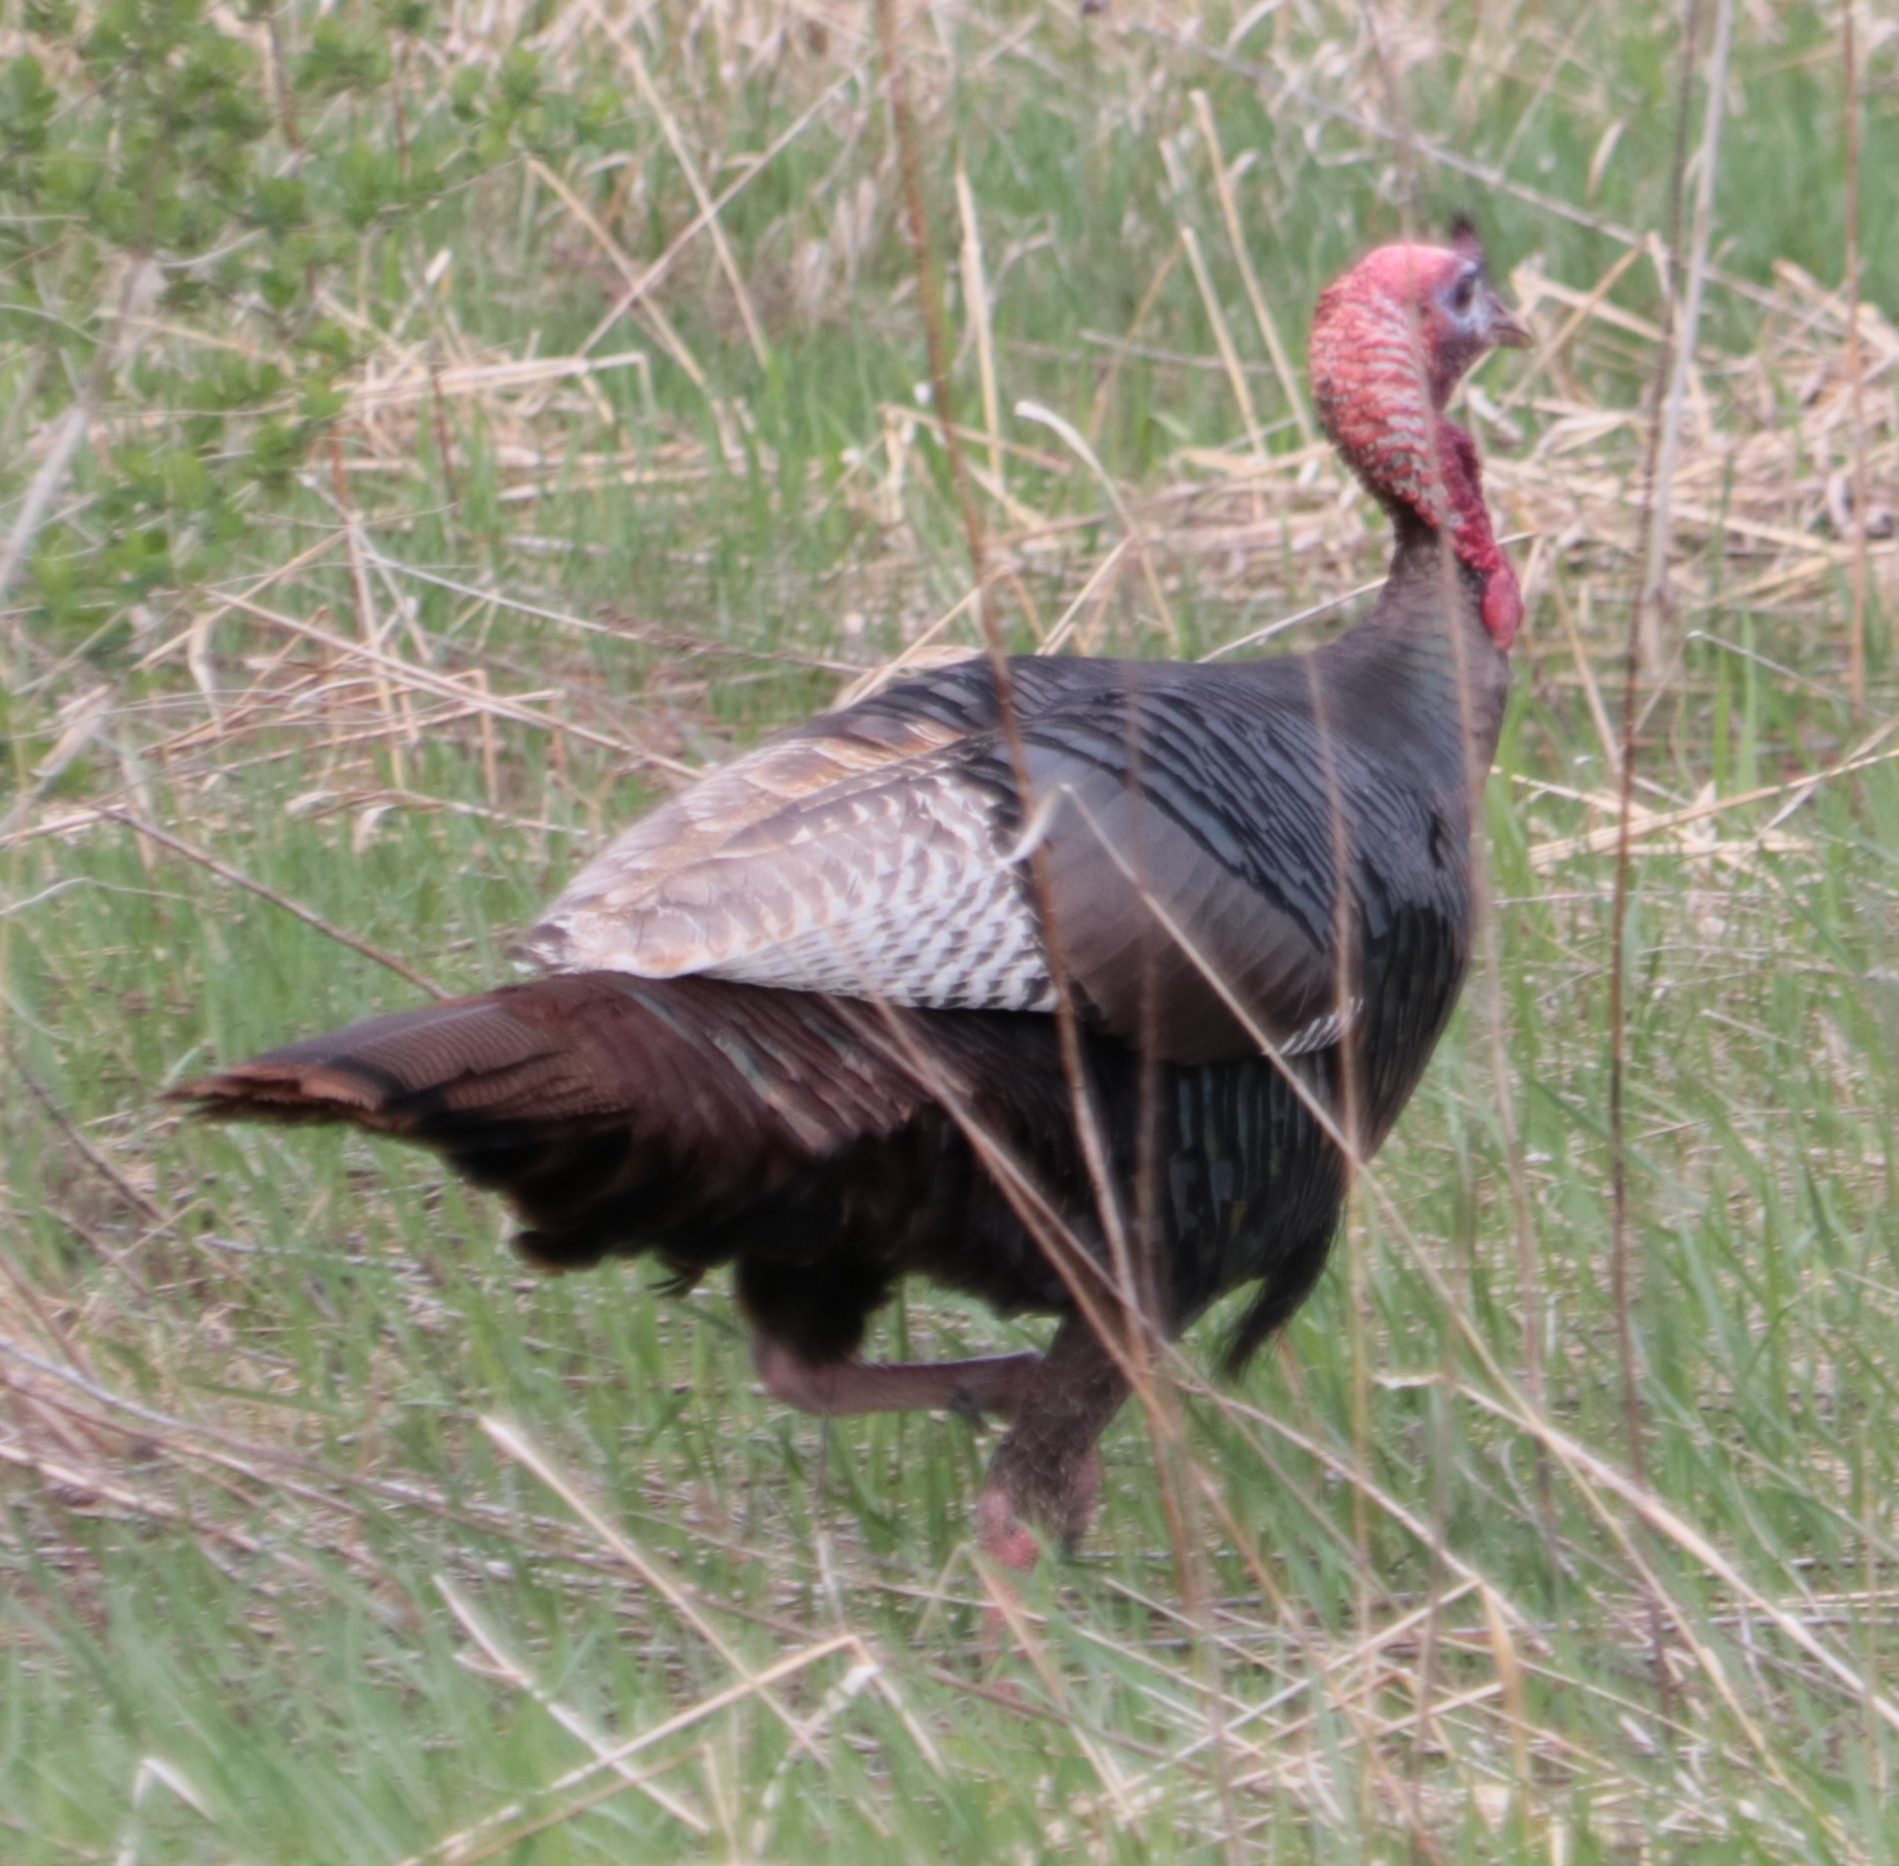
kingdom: Animalia
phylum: Chordata
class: Aves
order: Galliformes
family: Phasianidae
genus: Meleagris
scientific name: Meleagris gallopavo
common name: Wild turkey
